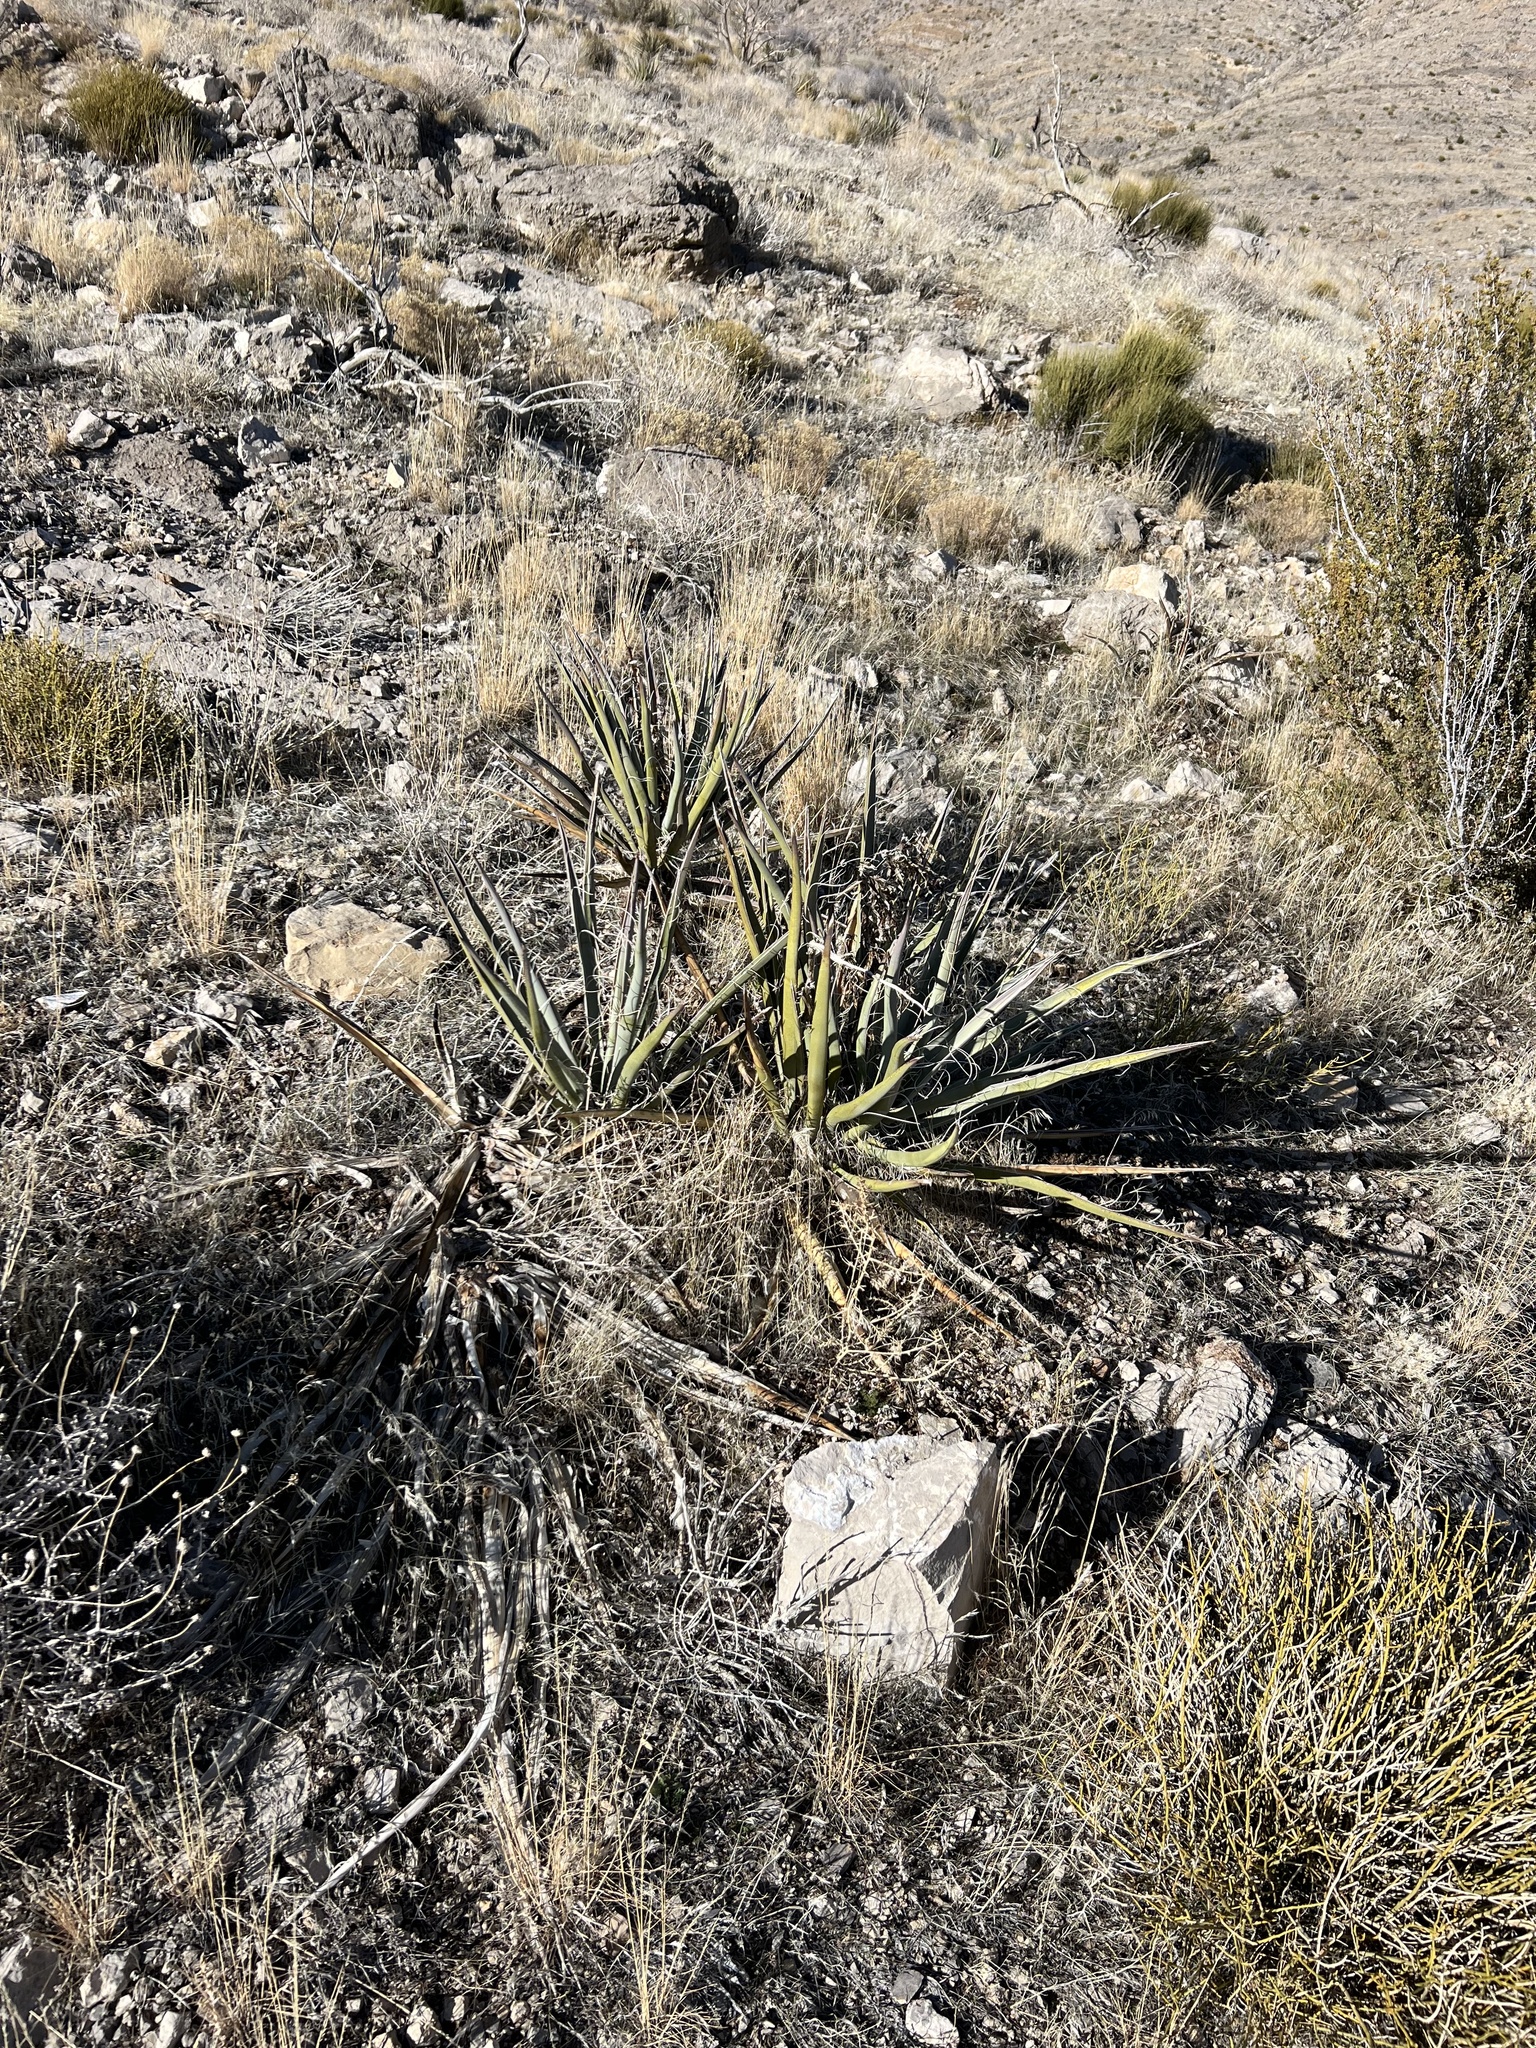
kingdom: Plantae
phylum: Tracheophyta
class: Liliopsida
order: Asparagales
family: Asparagaceae
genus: Yucca
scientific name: Yucca baccata
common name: Banana yucca
